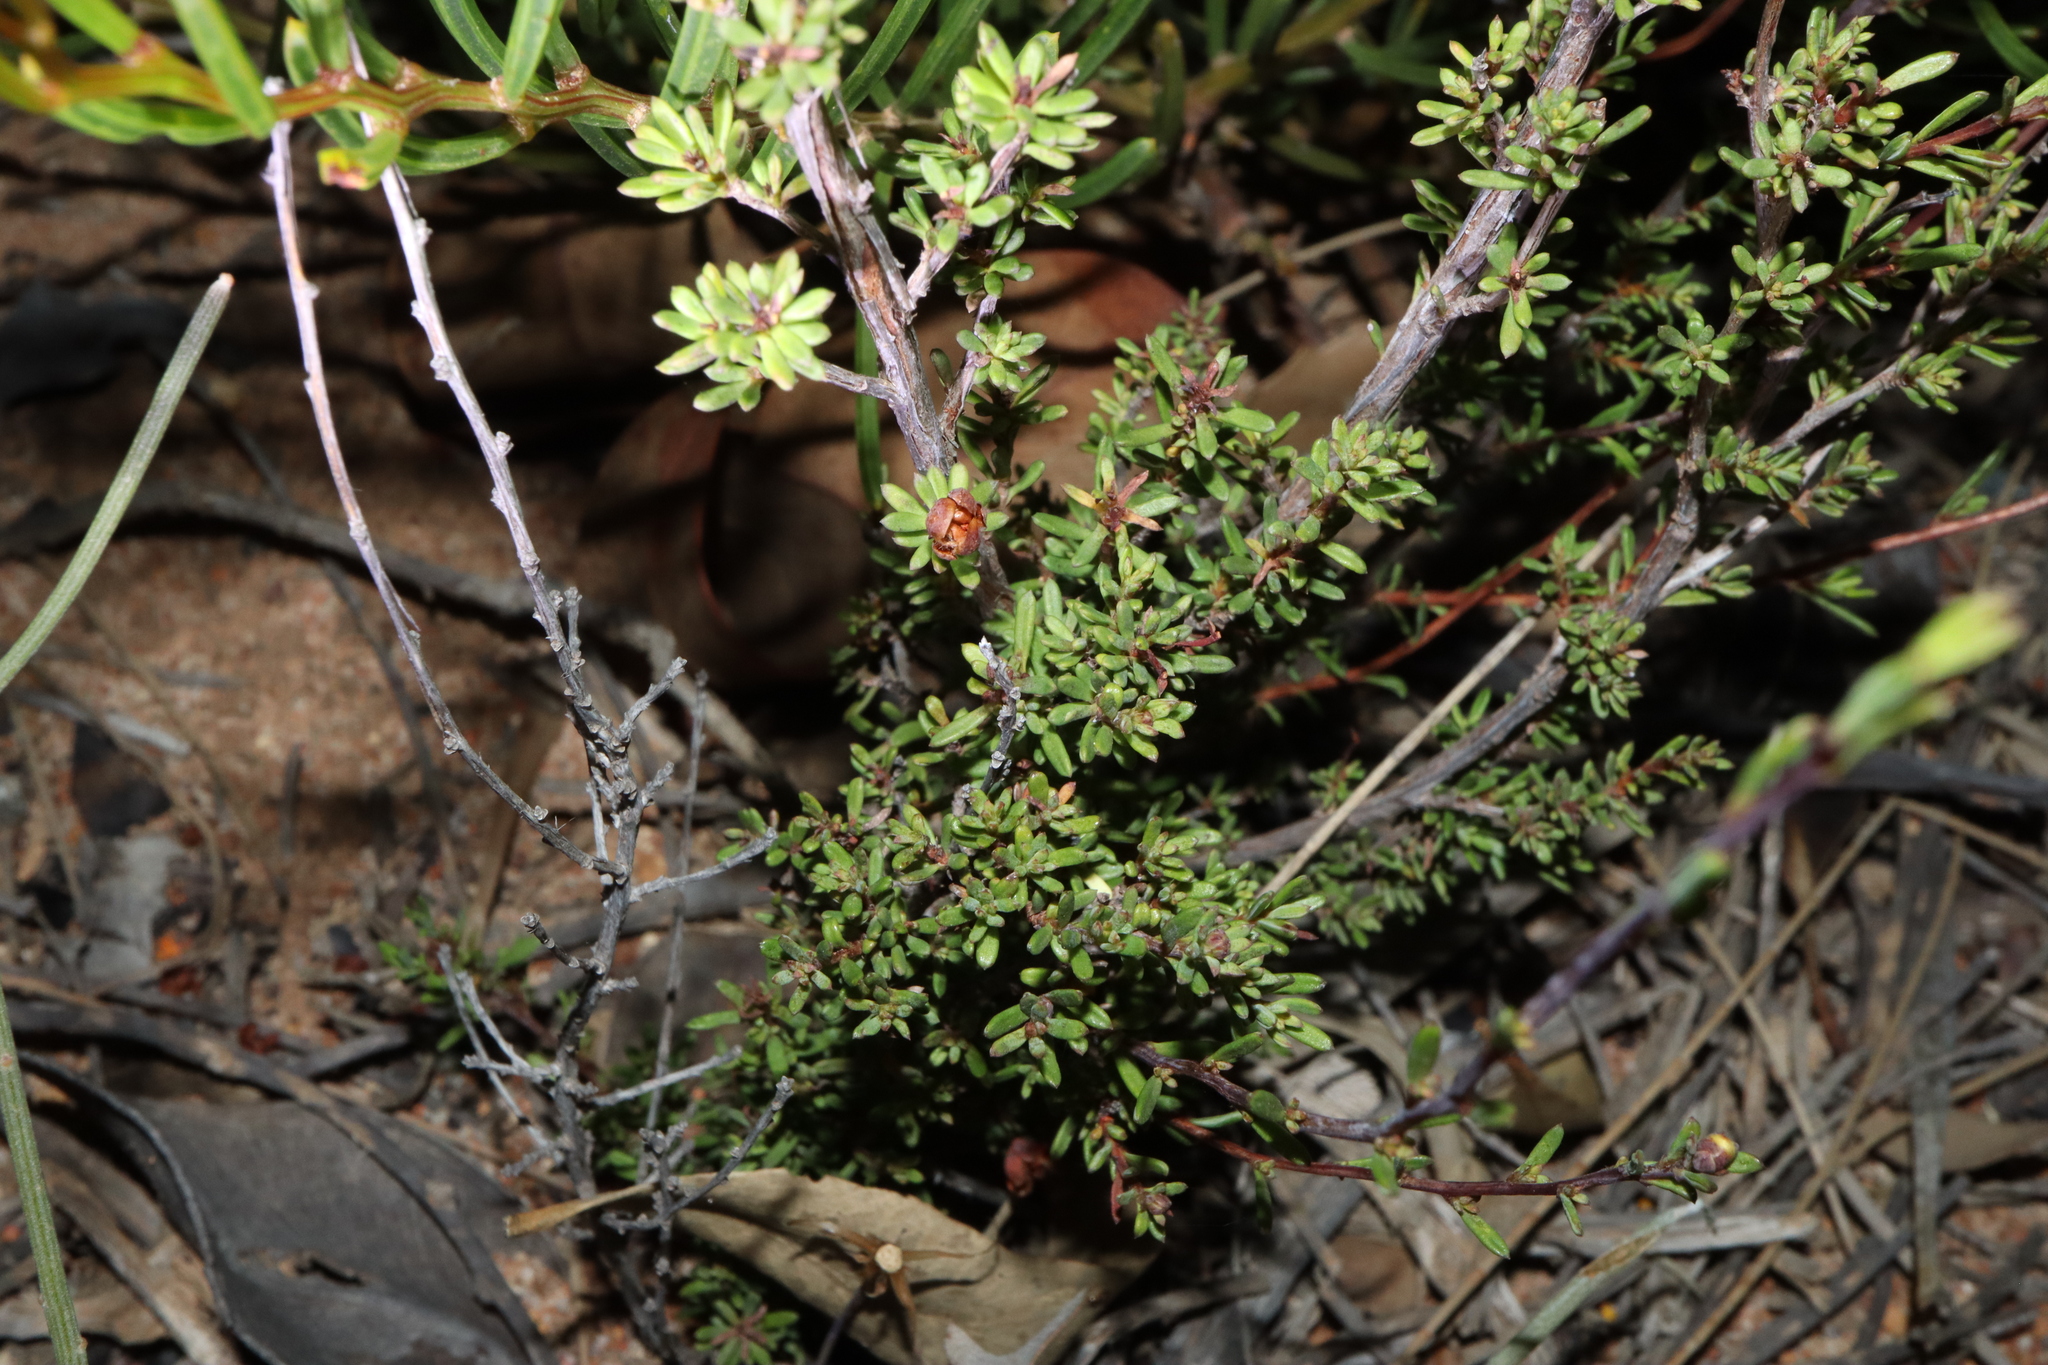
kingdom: Plantae
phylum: Tracheophyta
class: Magnoliopsida
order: Dilleniales
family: Dilleniaceae
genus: Hibbertia
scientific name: Hibbertia gracilipes
